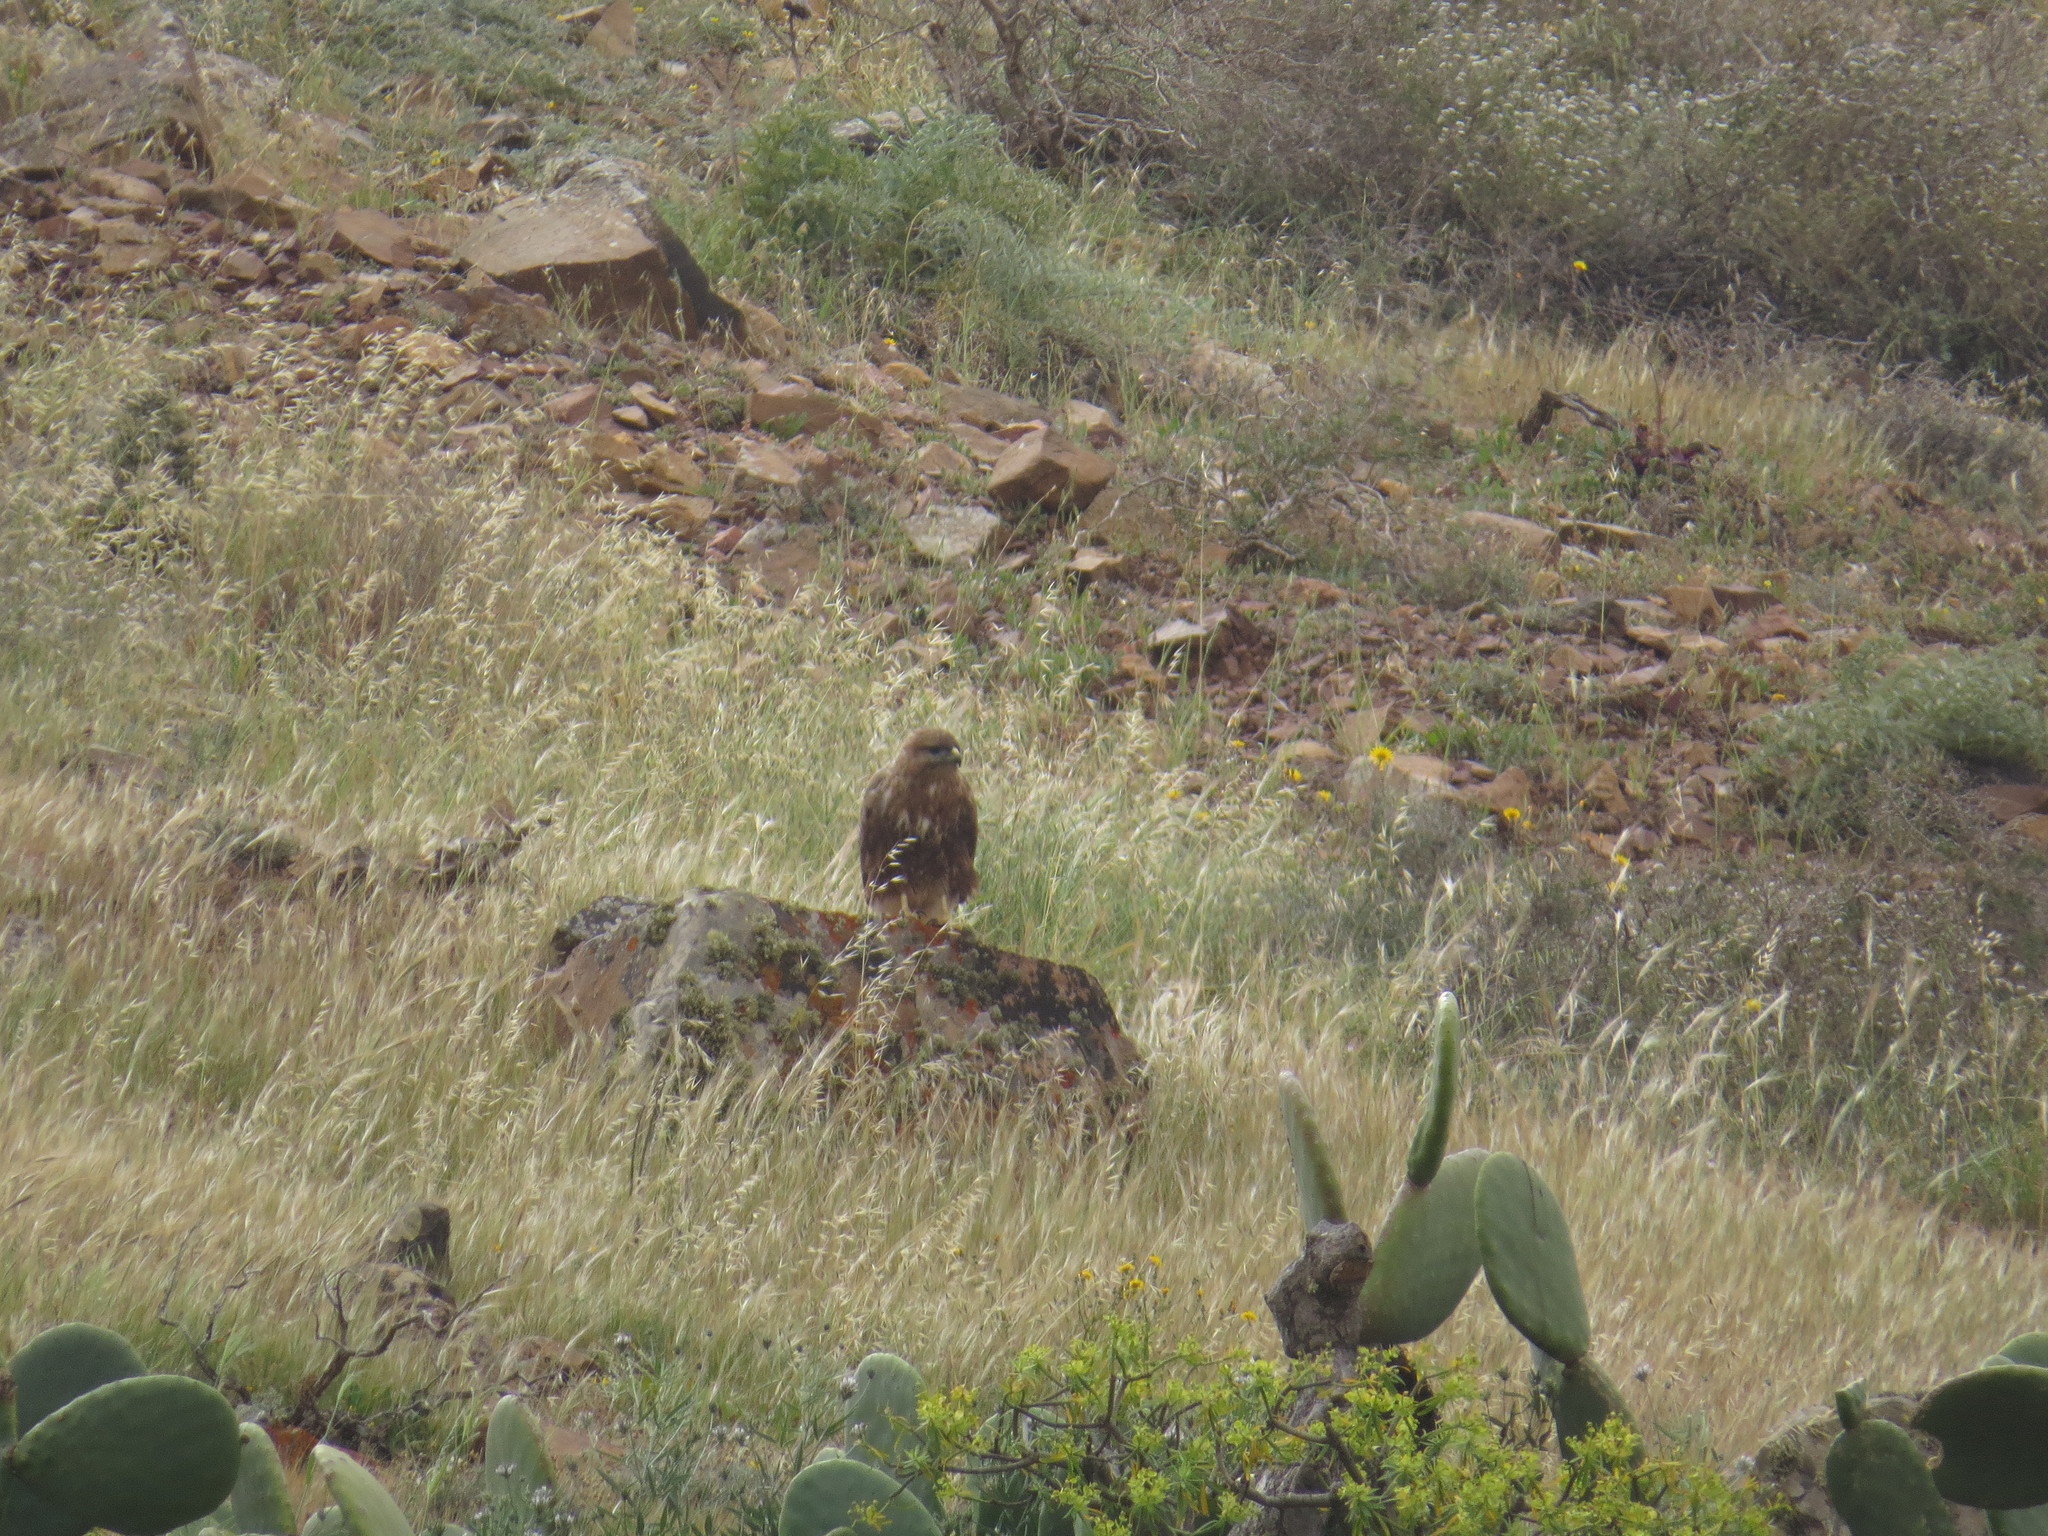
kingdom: Animalia
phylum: Chordata
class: Aves
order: Accipitriformes
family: Accipitridae
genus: Buteo
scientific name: Buteo buteo
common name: Common buzzard
